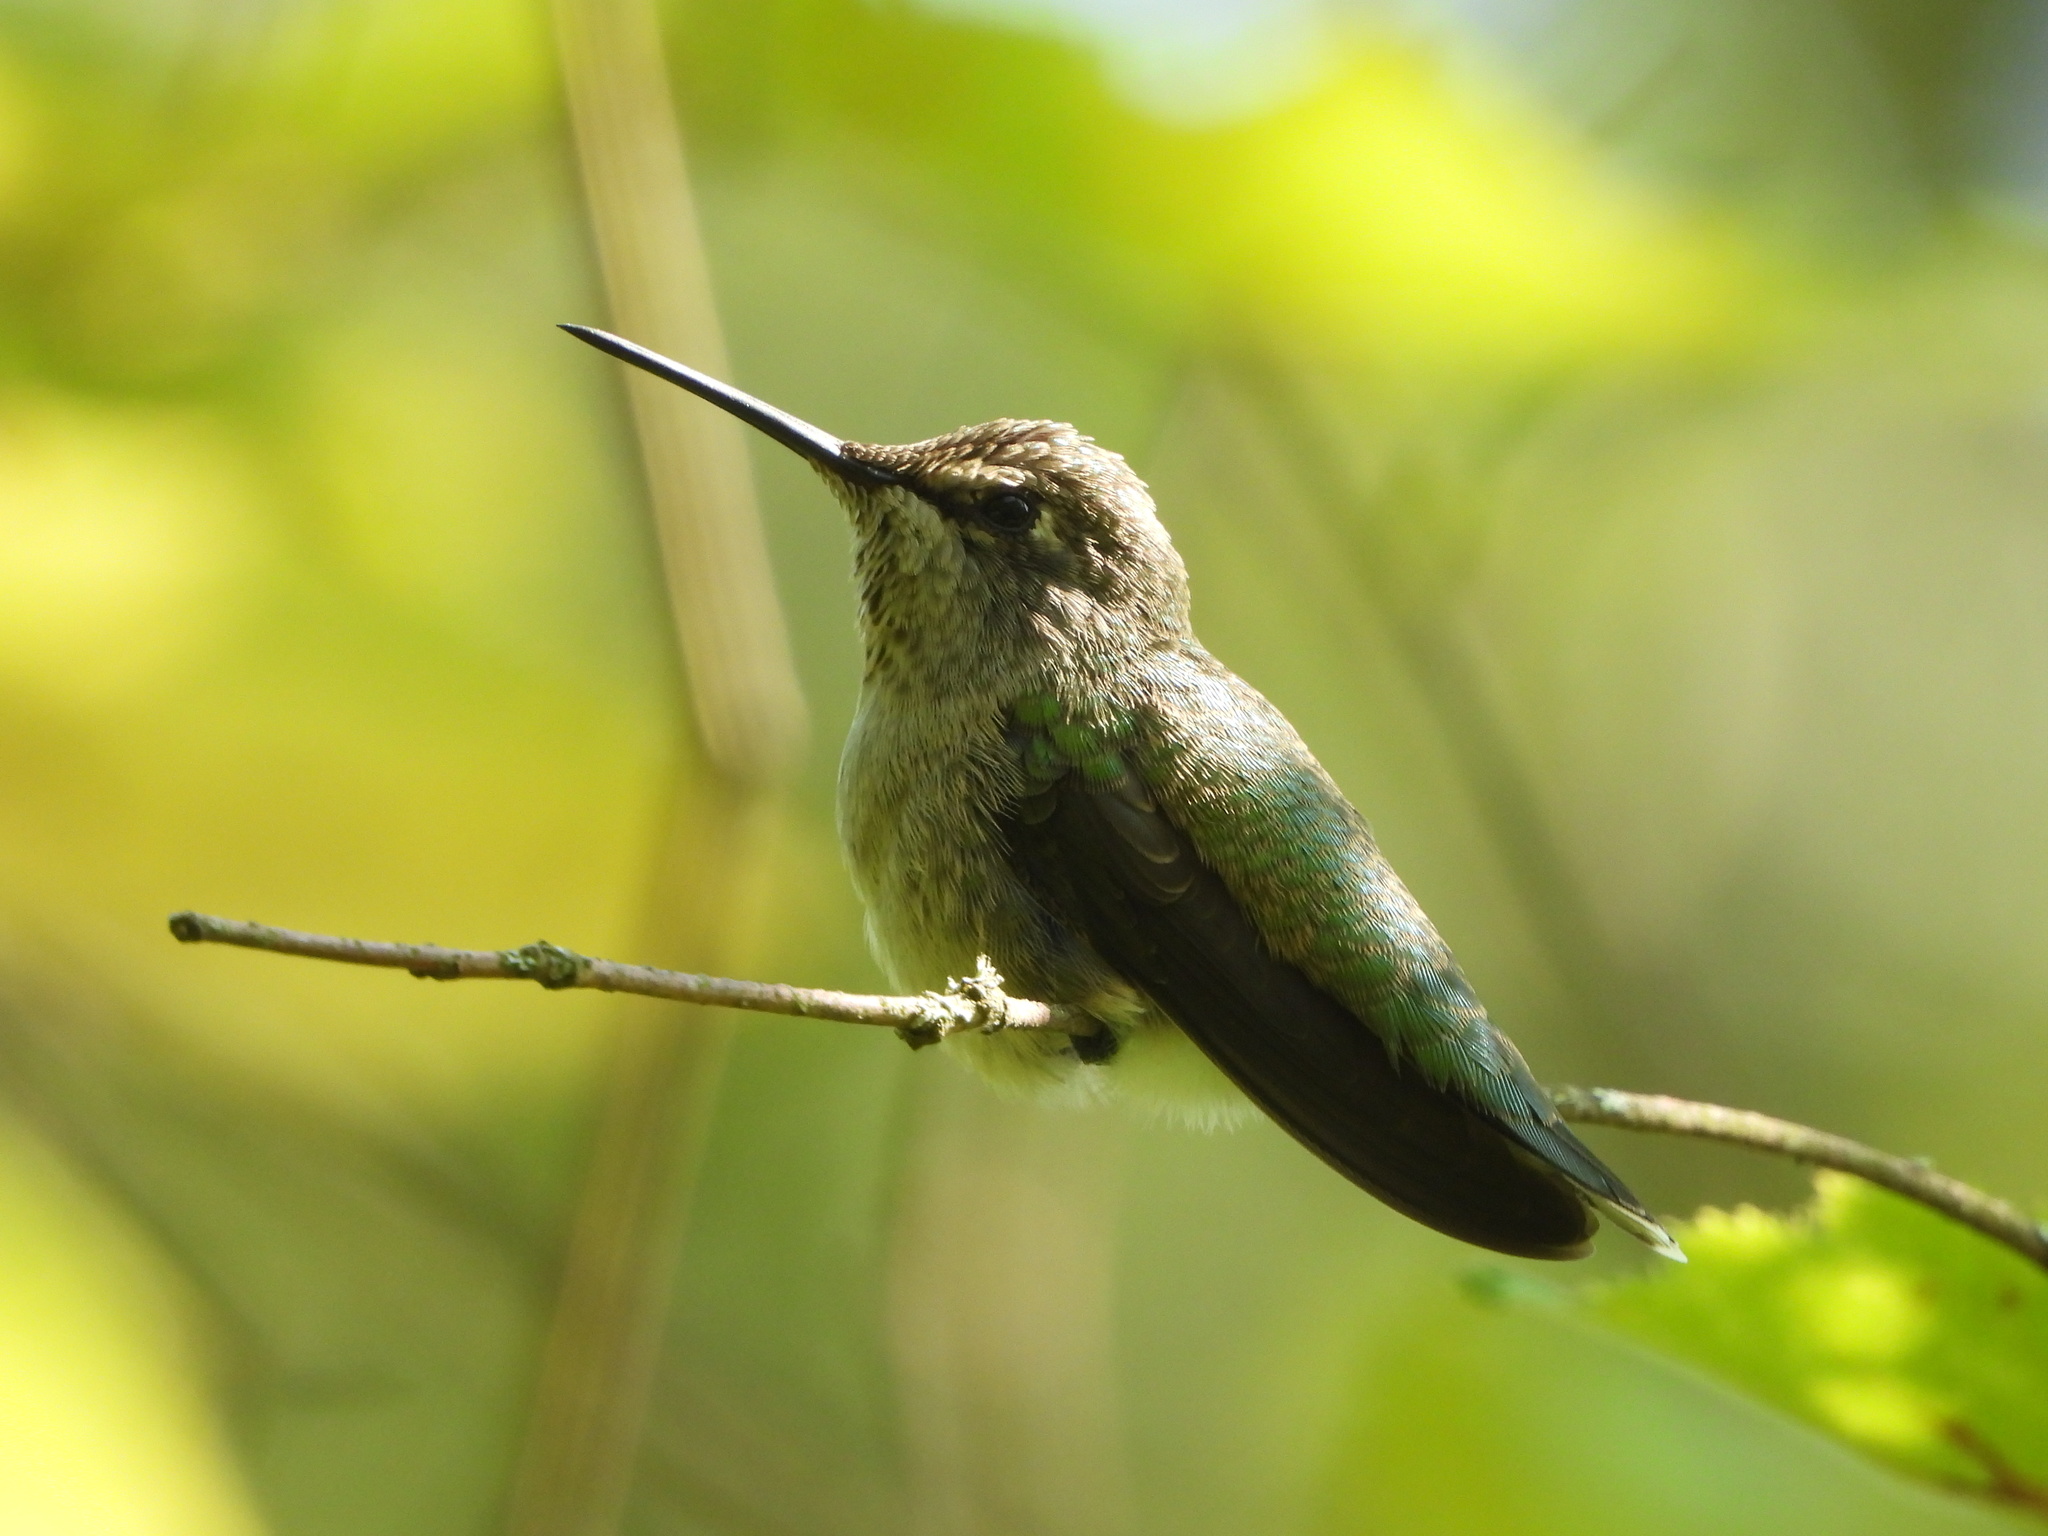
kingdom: Animalia
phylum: Chordata
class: Aves
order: Apodiformes
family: Trochilidae
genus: Calypte
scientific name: Calypte anna
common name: Anna's hummingbird
